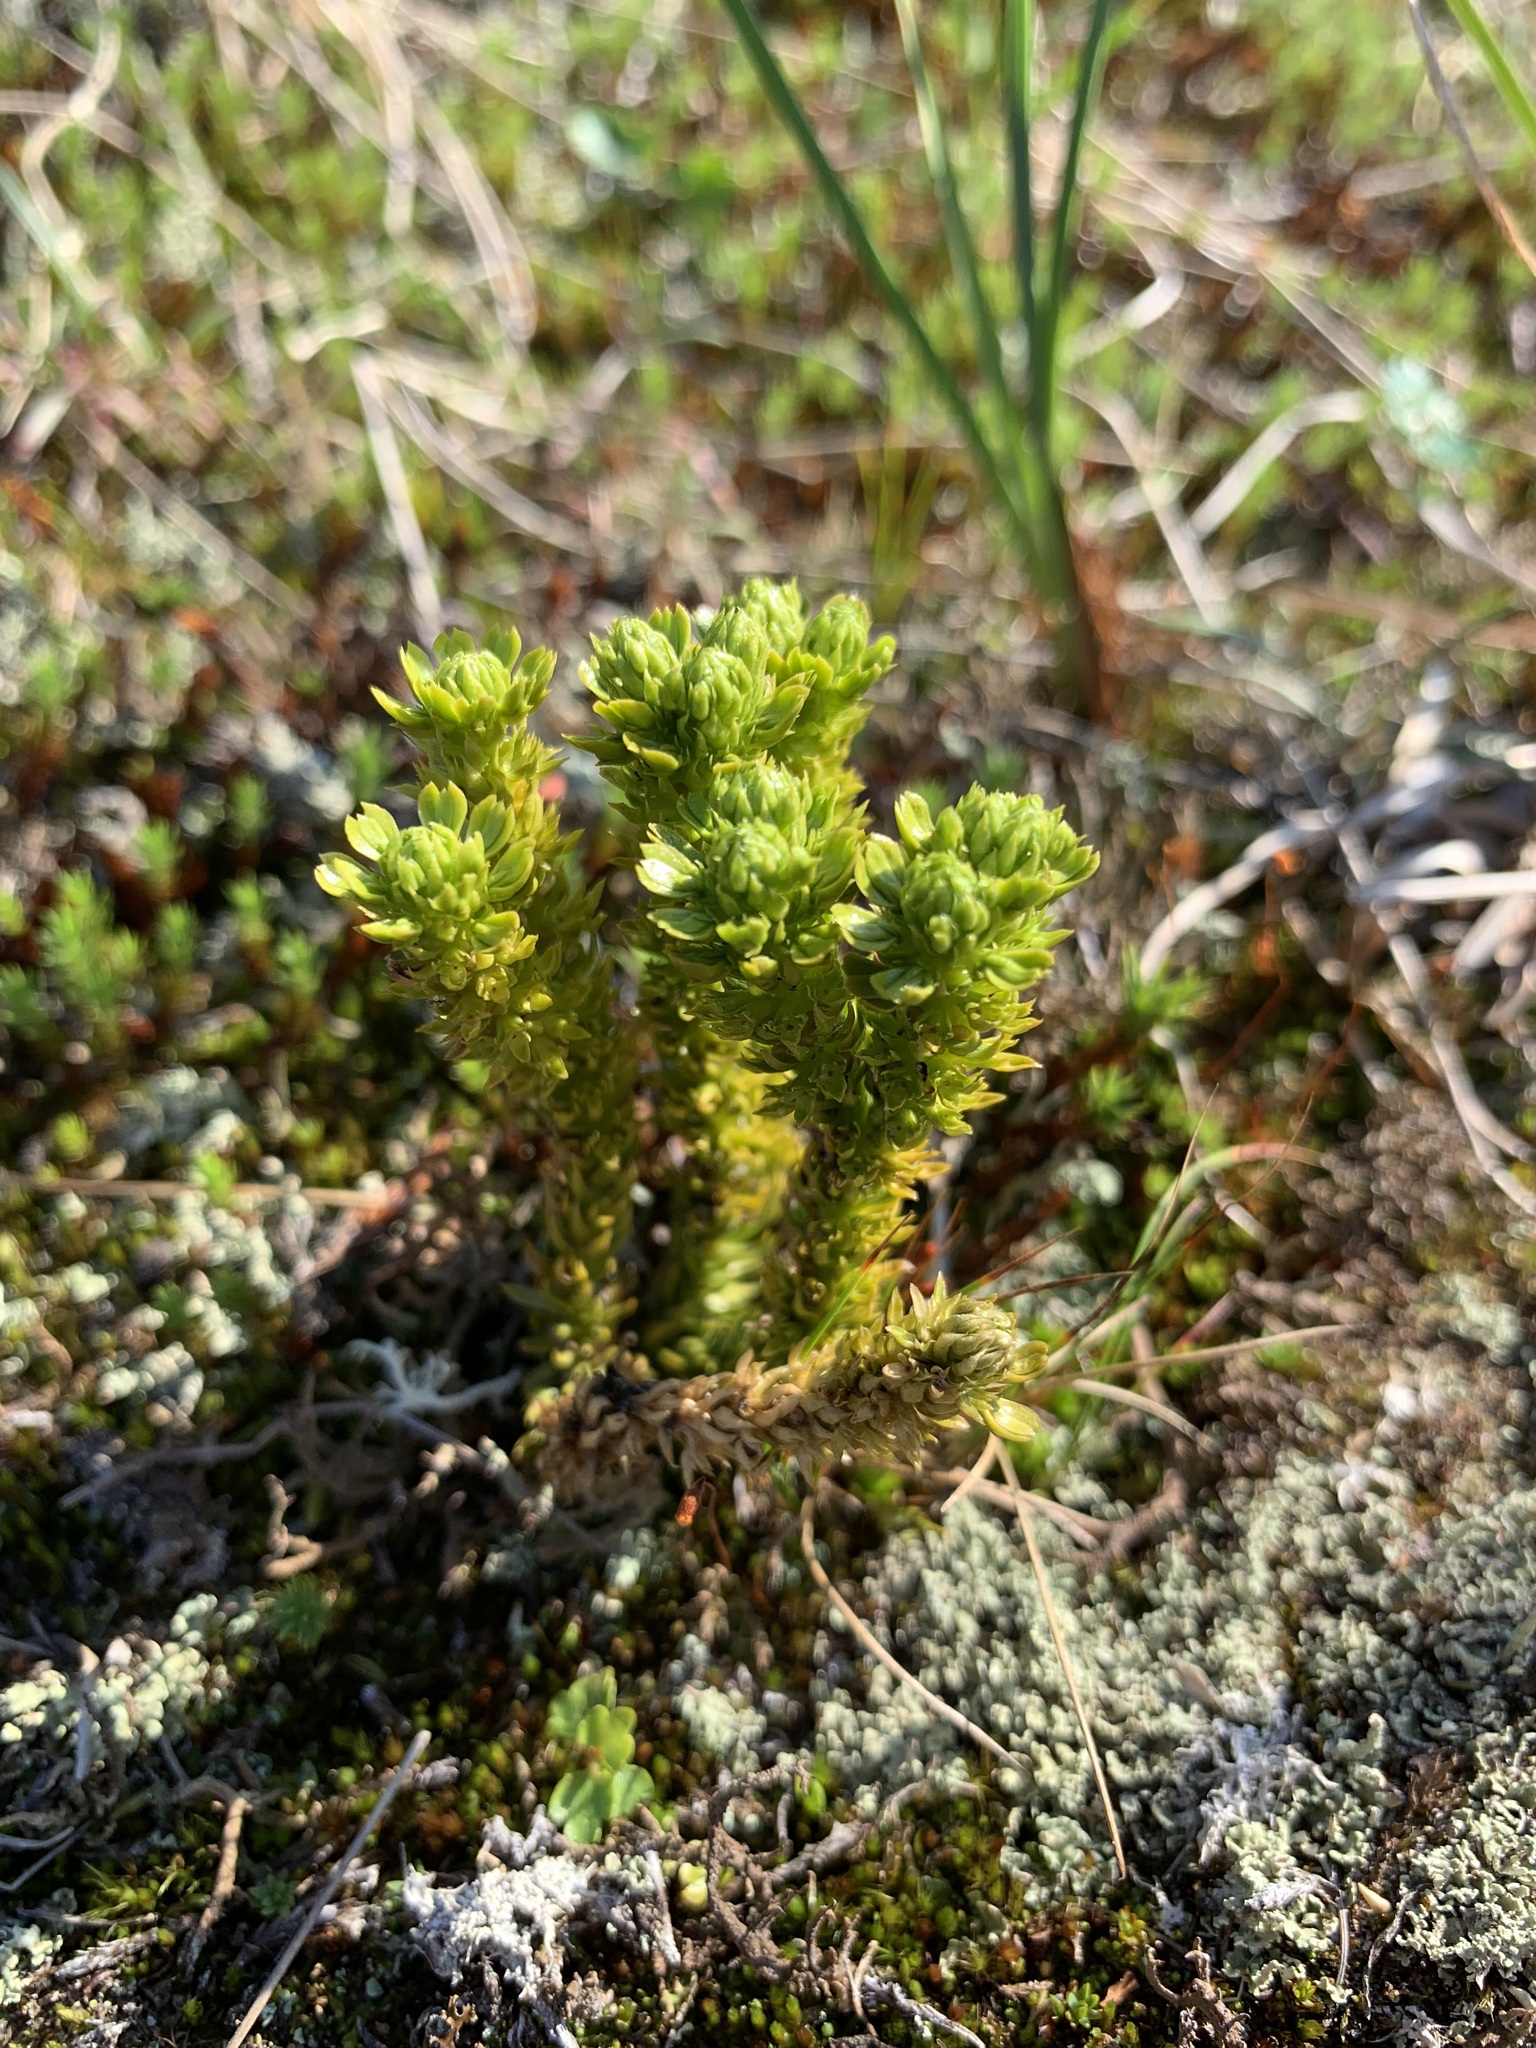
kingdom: Plantae
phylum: Tracheophyta
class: Lycopodiopsida
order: Lycopodiales
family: Lycopodiaceae
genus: Huperzia
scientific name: Huperzia selago
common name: Northern firmoss
